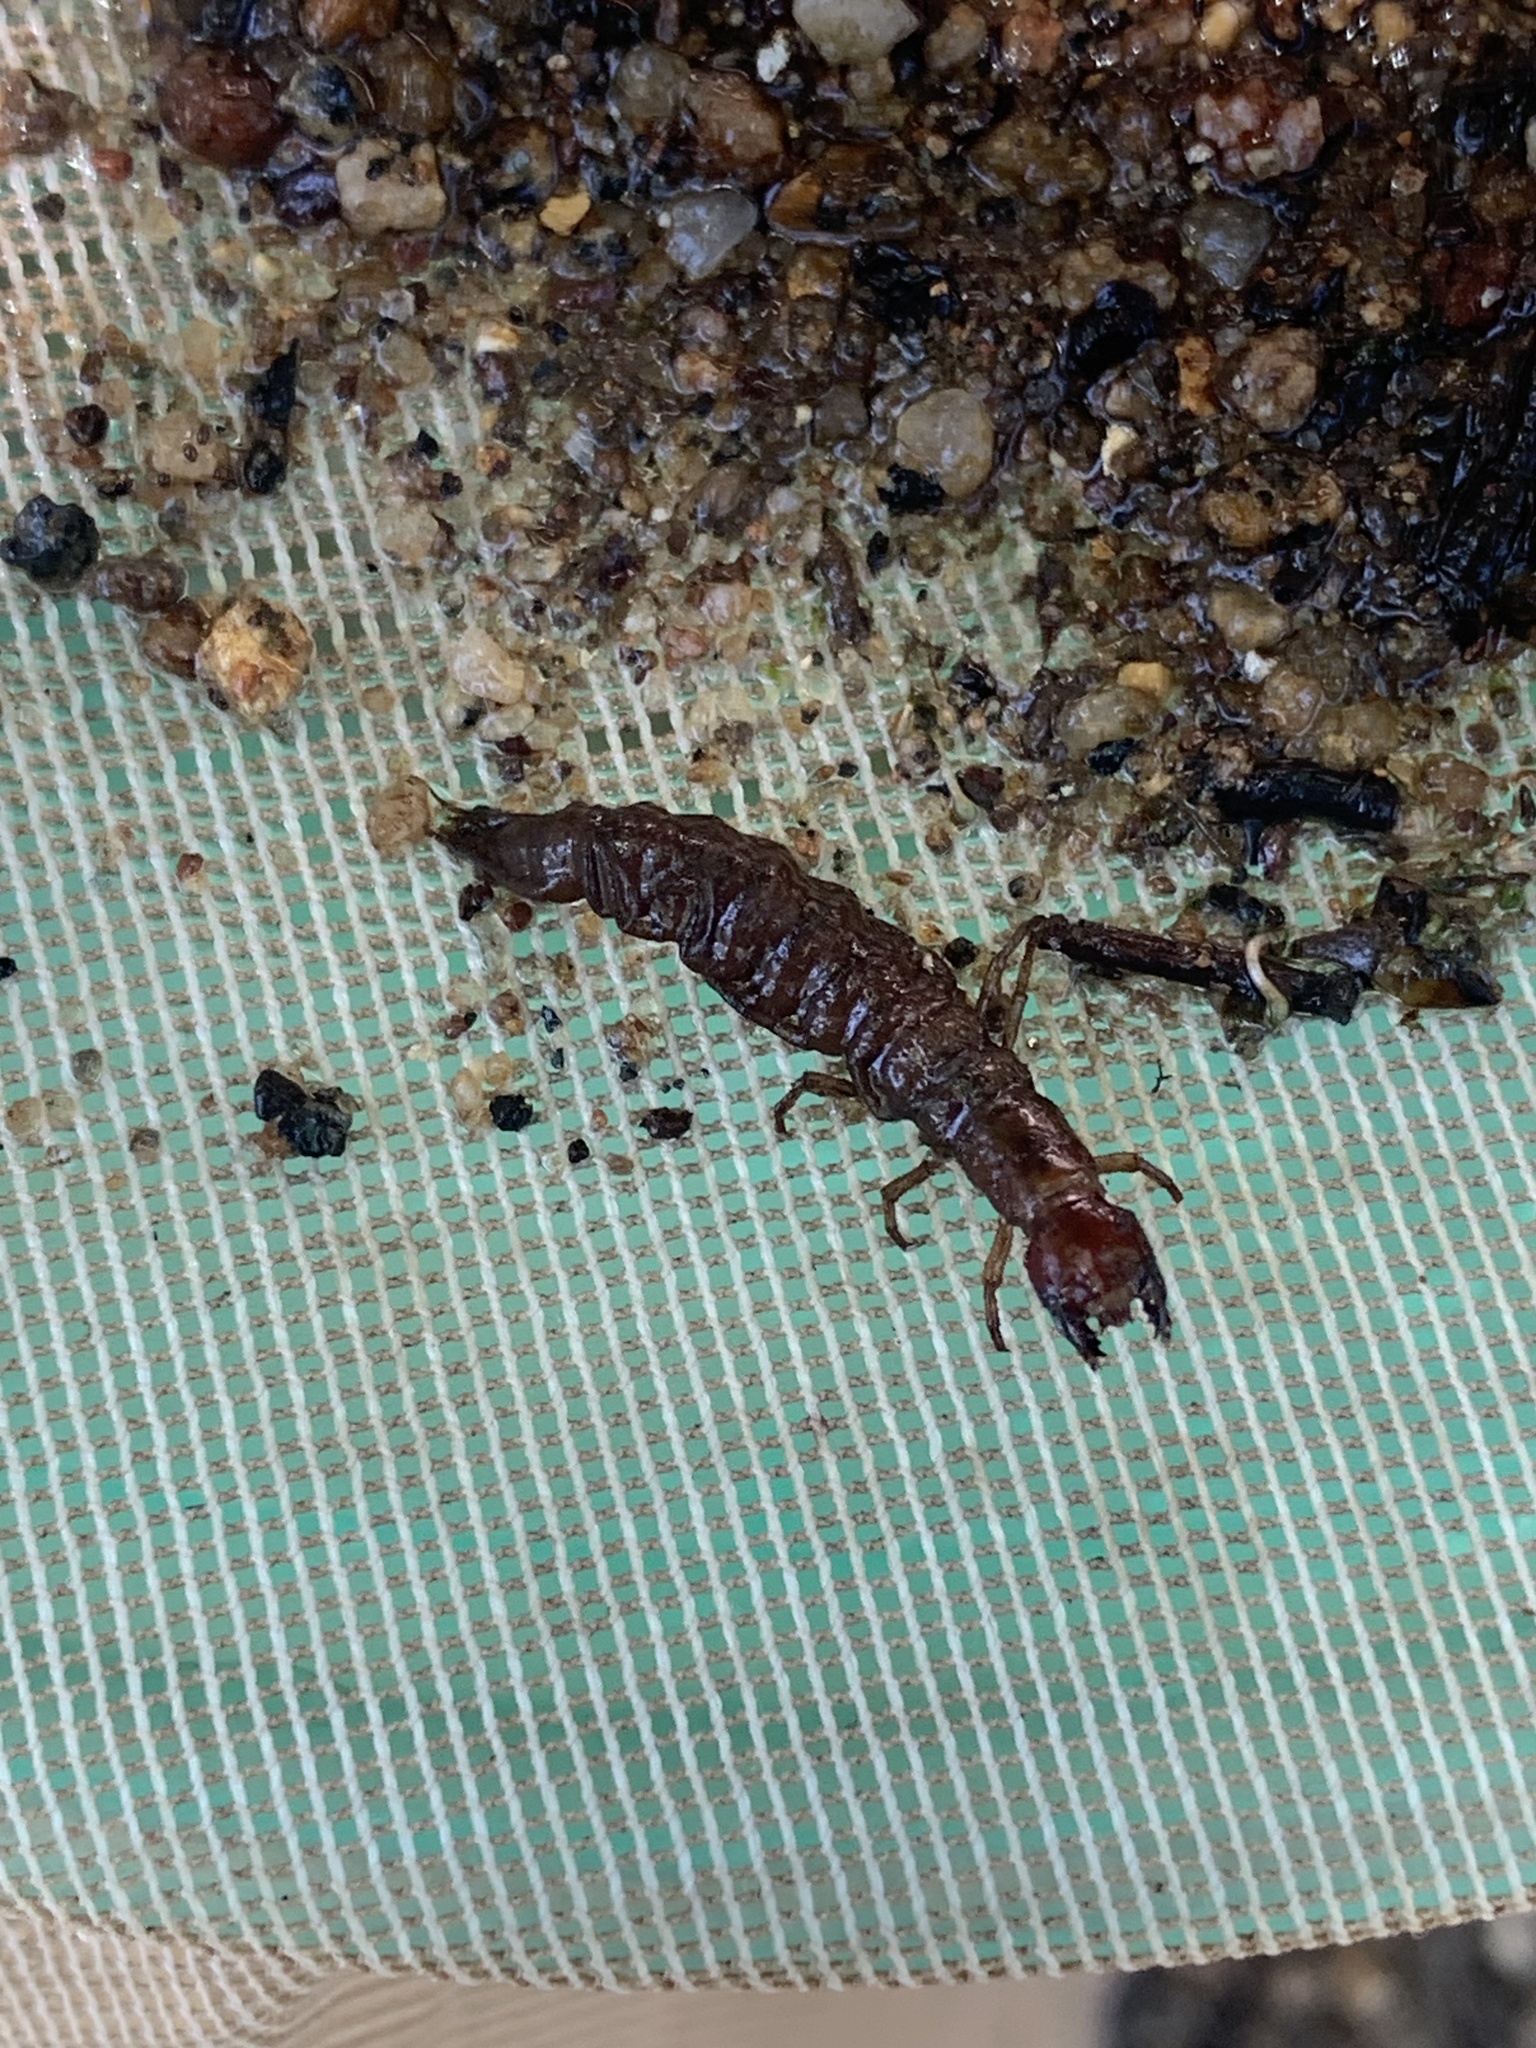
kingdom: Animalia
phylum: Arthropoda
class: Insecta
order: Megaloptera
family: Corydalidae
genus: Corydalus
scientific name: Corydalus texanus
